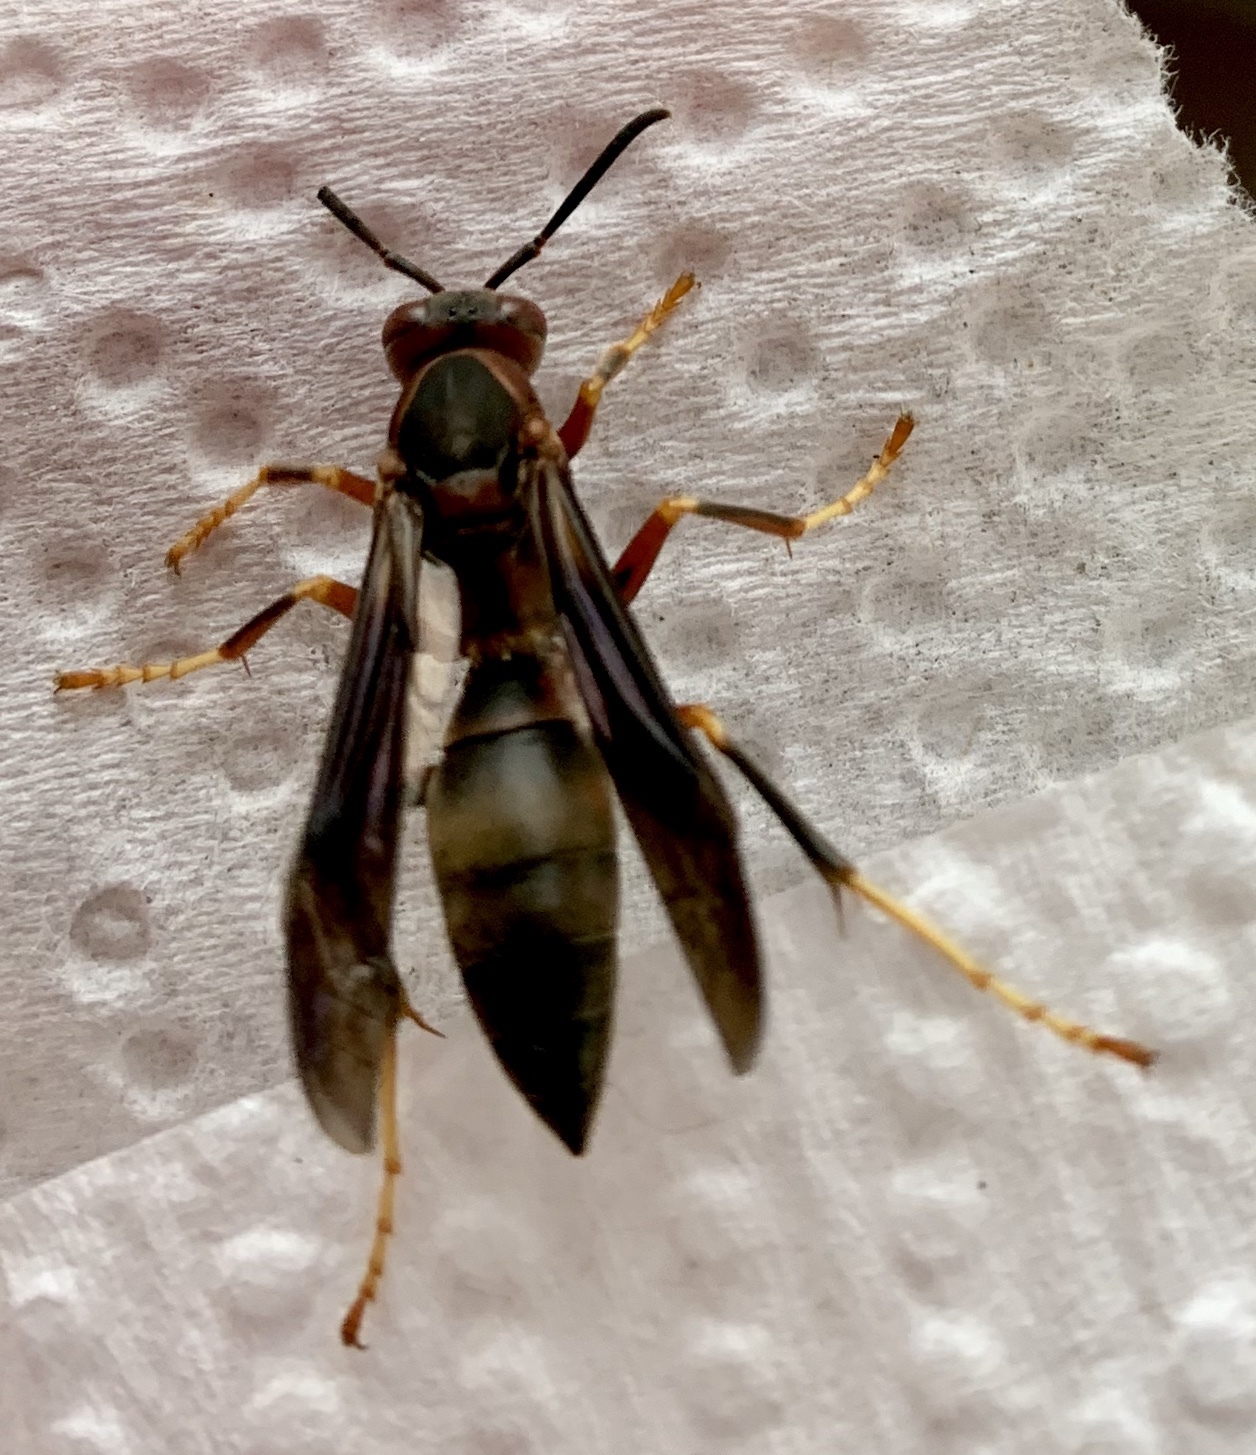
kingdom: Animalia
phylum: Arthropoda
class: Insecta
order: Hymenoptera
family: Eumenidae
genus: Polistes
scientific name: Polistes metricus
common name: Metric paper wasp
